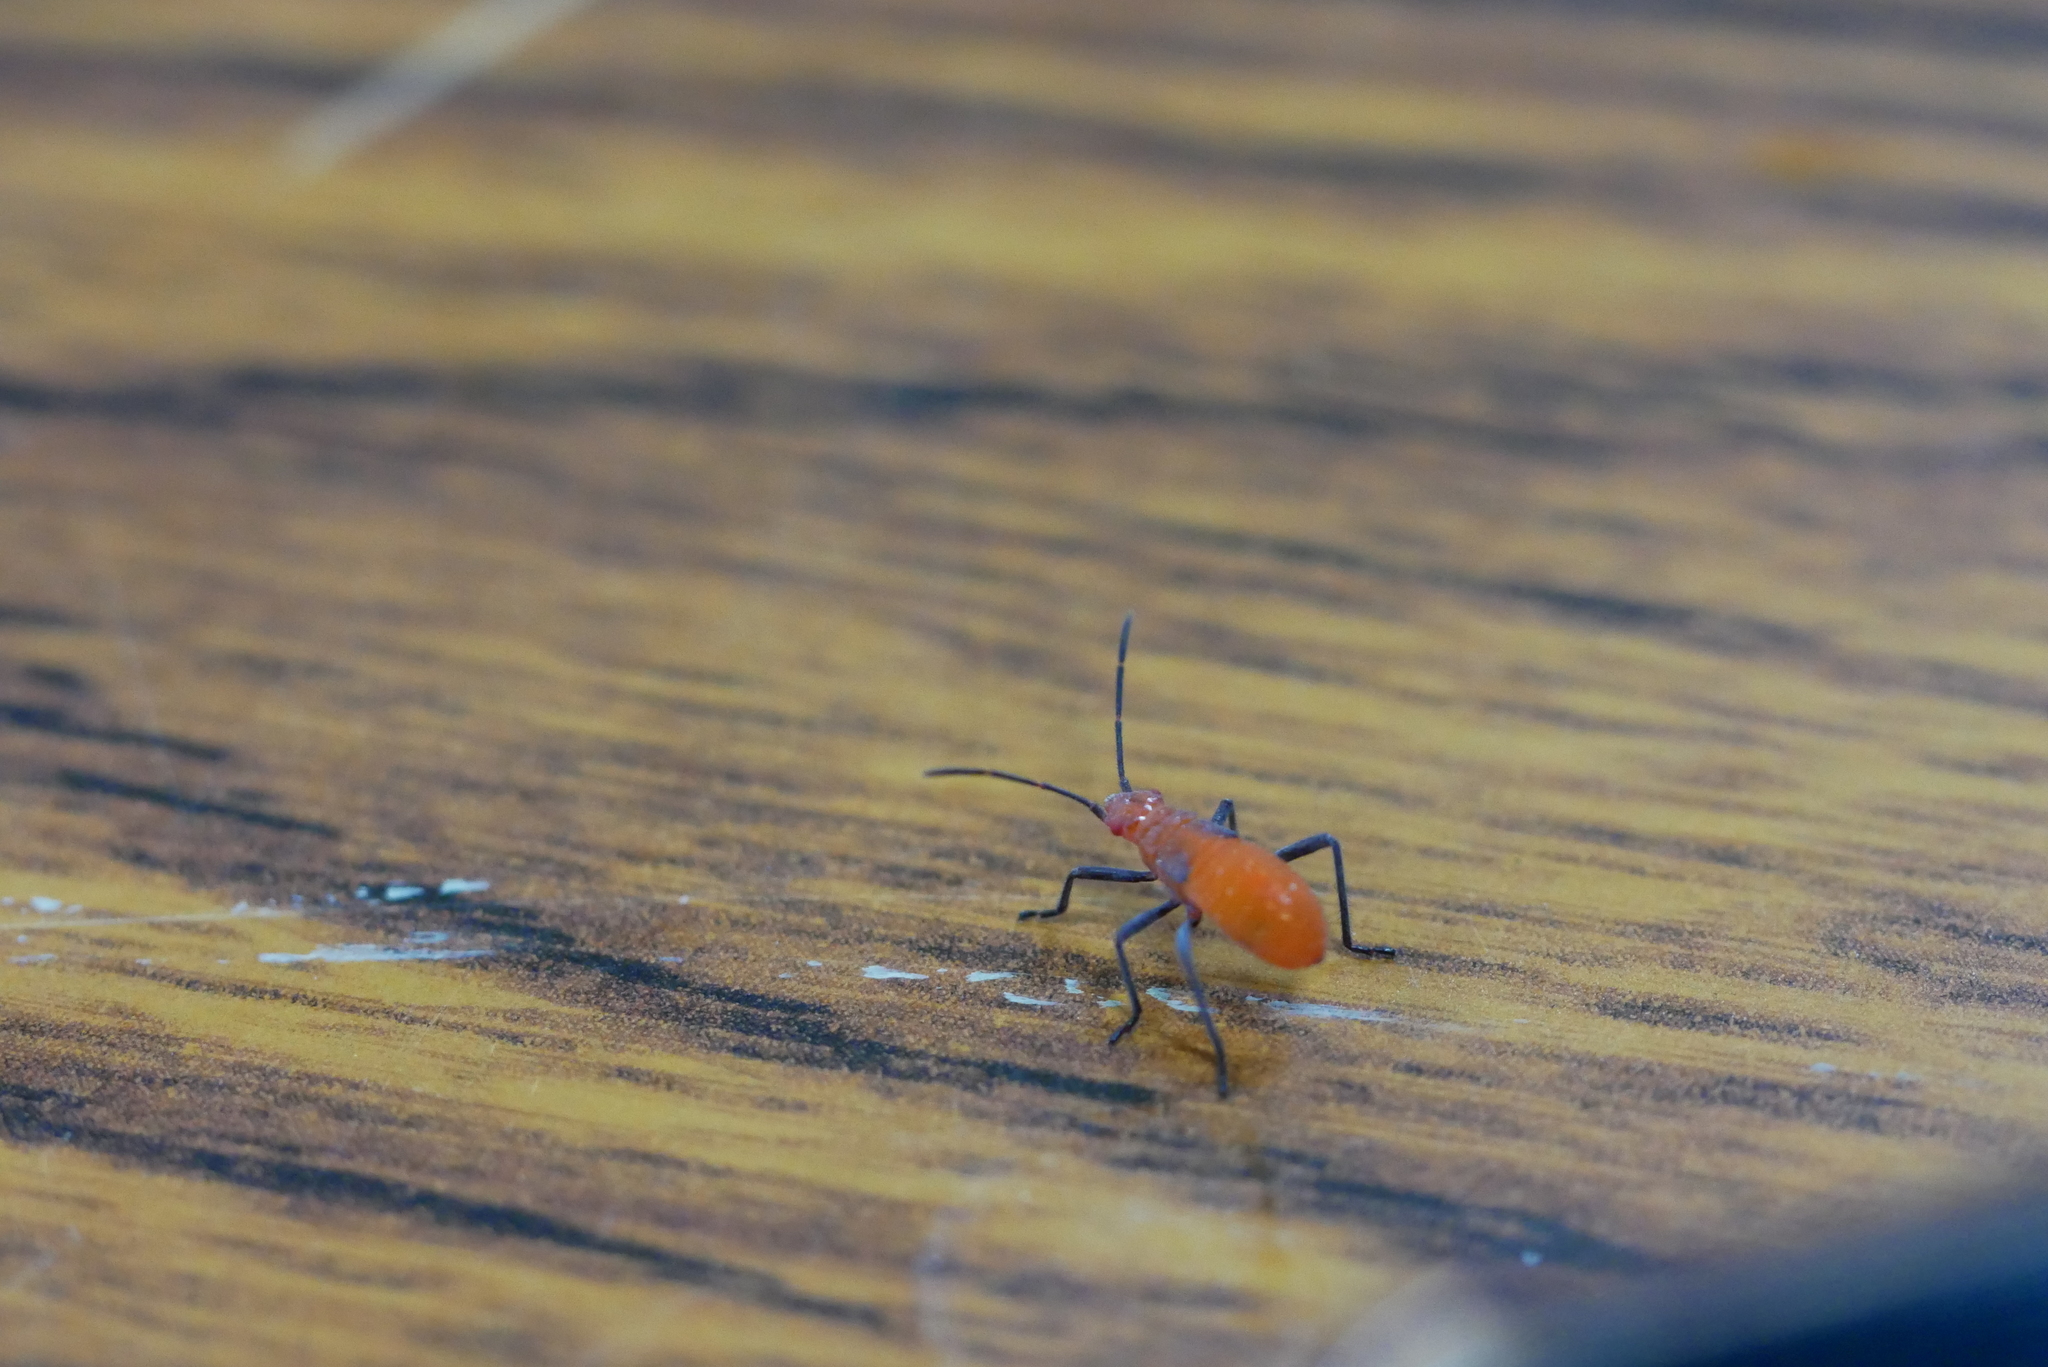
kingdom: Animalia
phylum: Arthropoda
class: Insecta
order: Hemiptera
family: Rhopalidae
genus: Jadera
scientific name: Jadera haematoloma
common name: Red-shouldered bug
